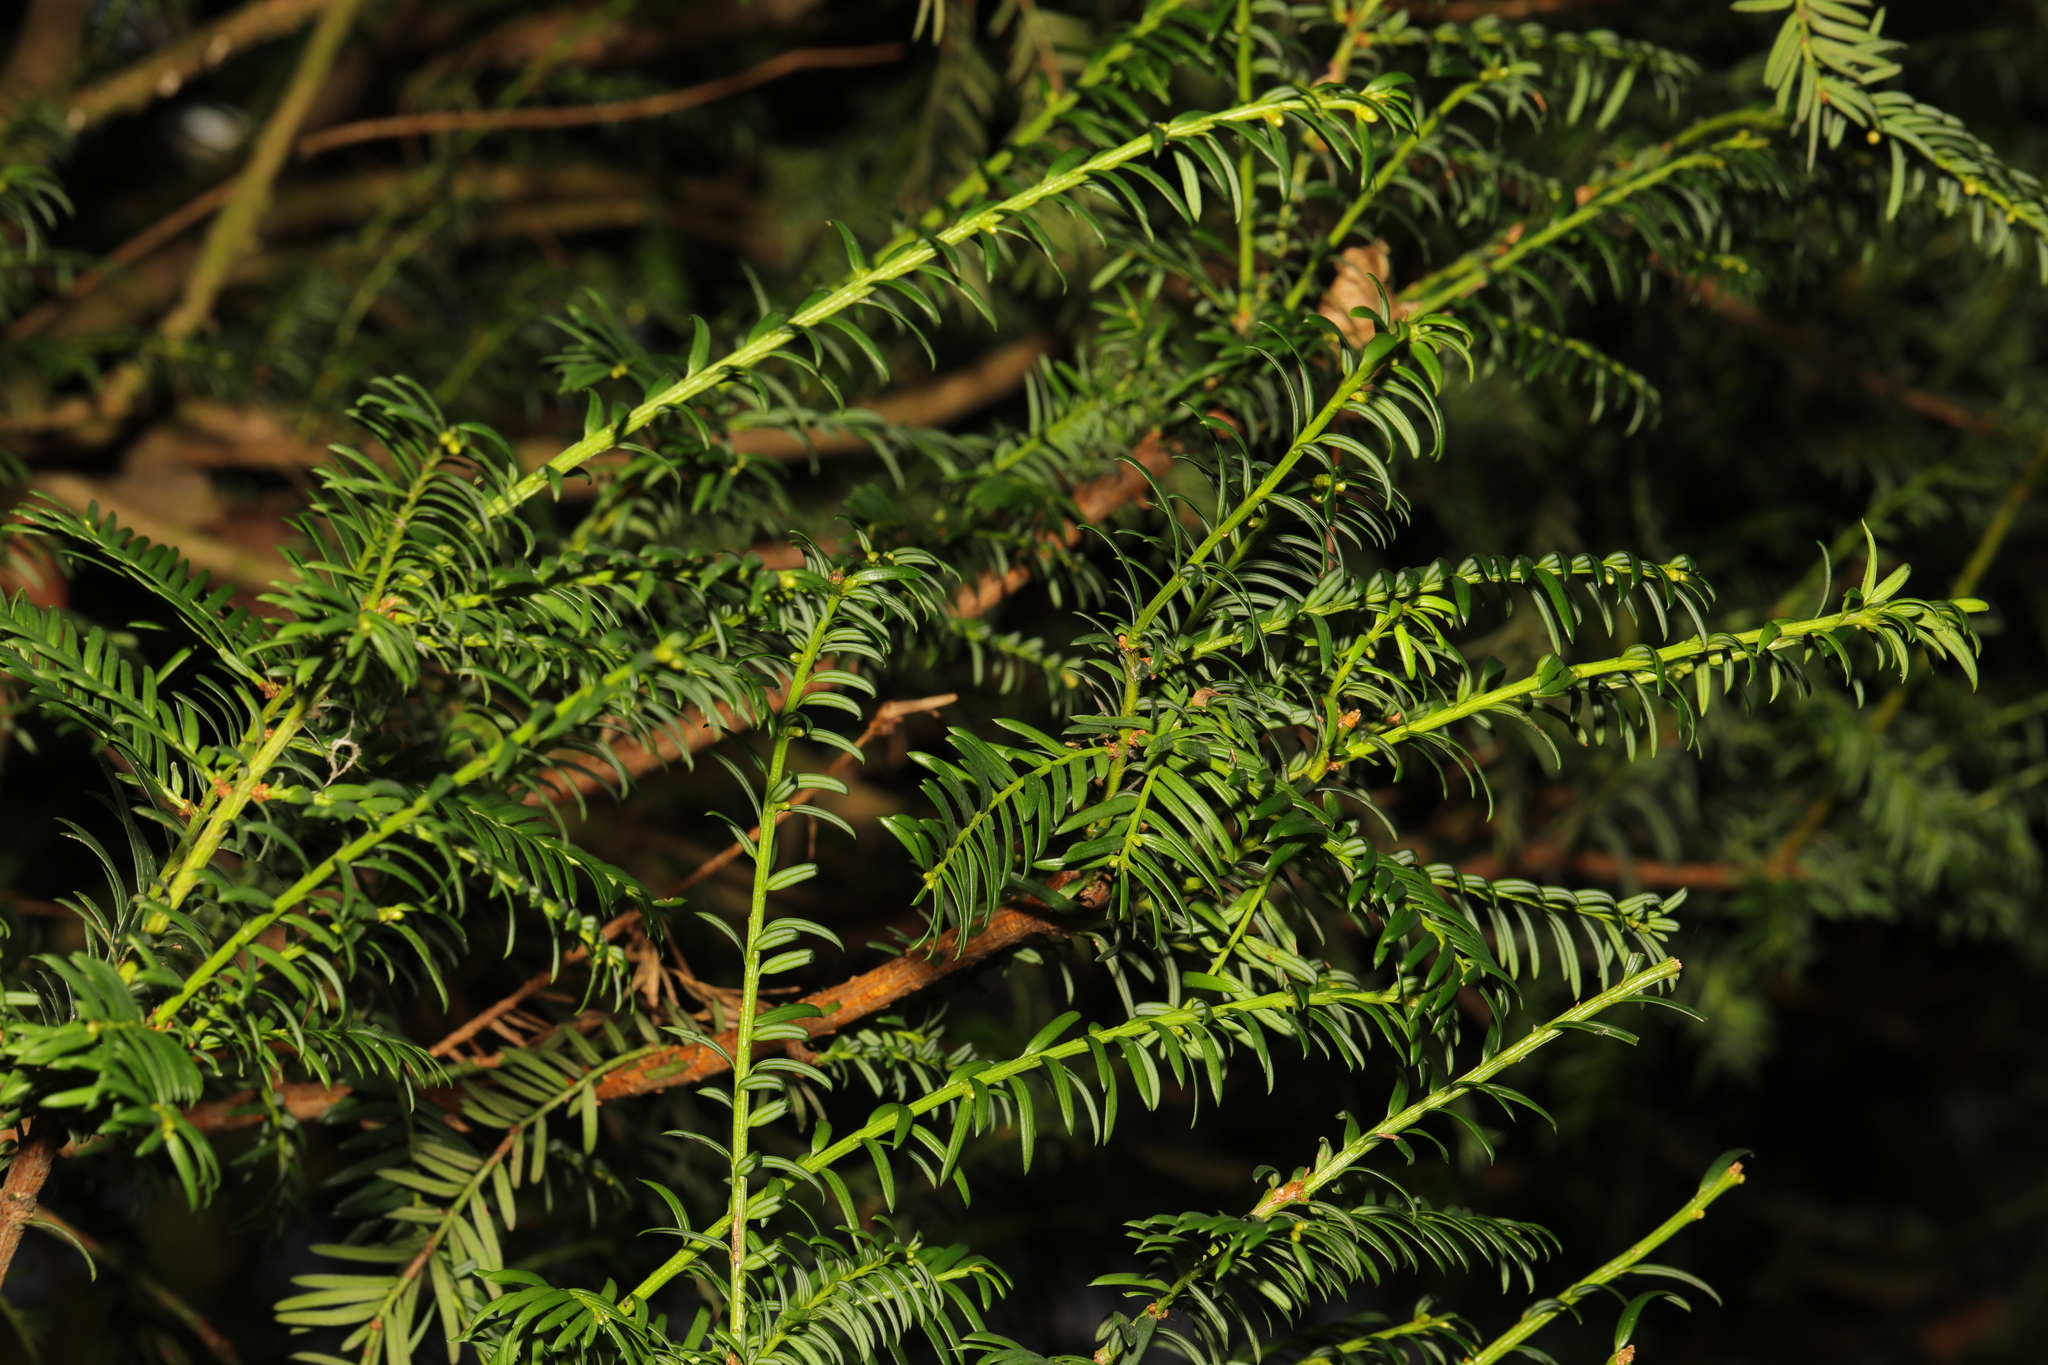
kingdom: Plantae
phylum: Tracheophyta
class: Pinopsida
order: Pinales
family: Taxaceae
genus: Taxus
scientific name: Taxus baccata
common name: Yew
